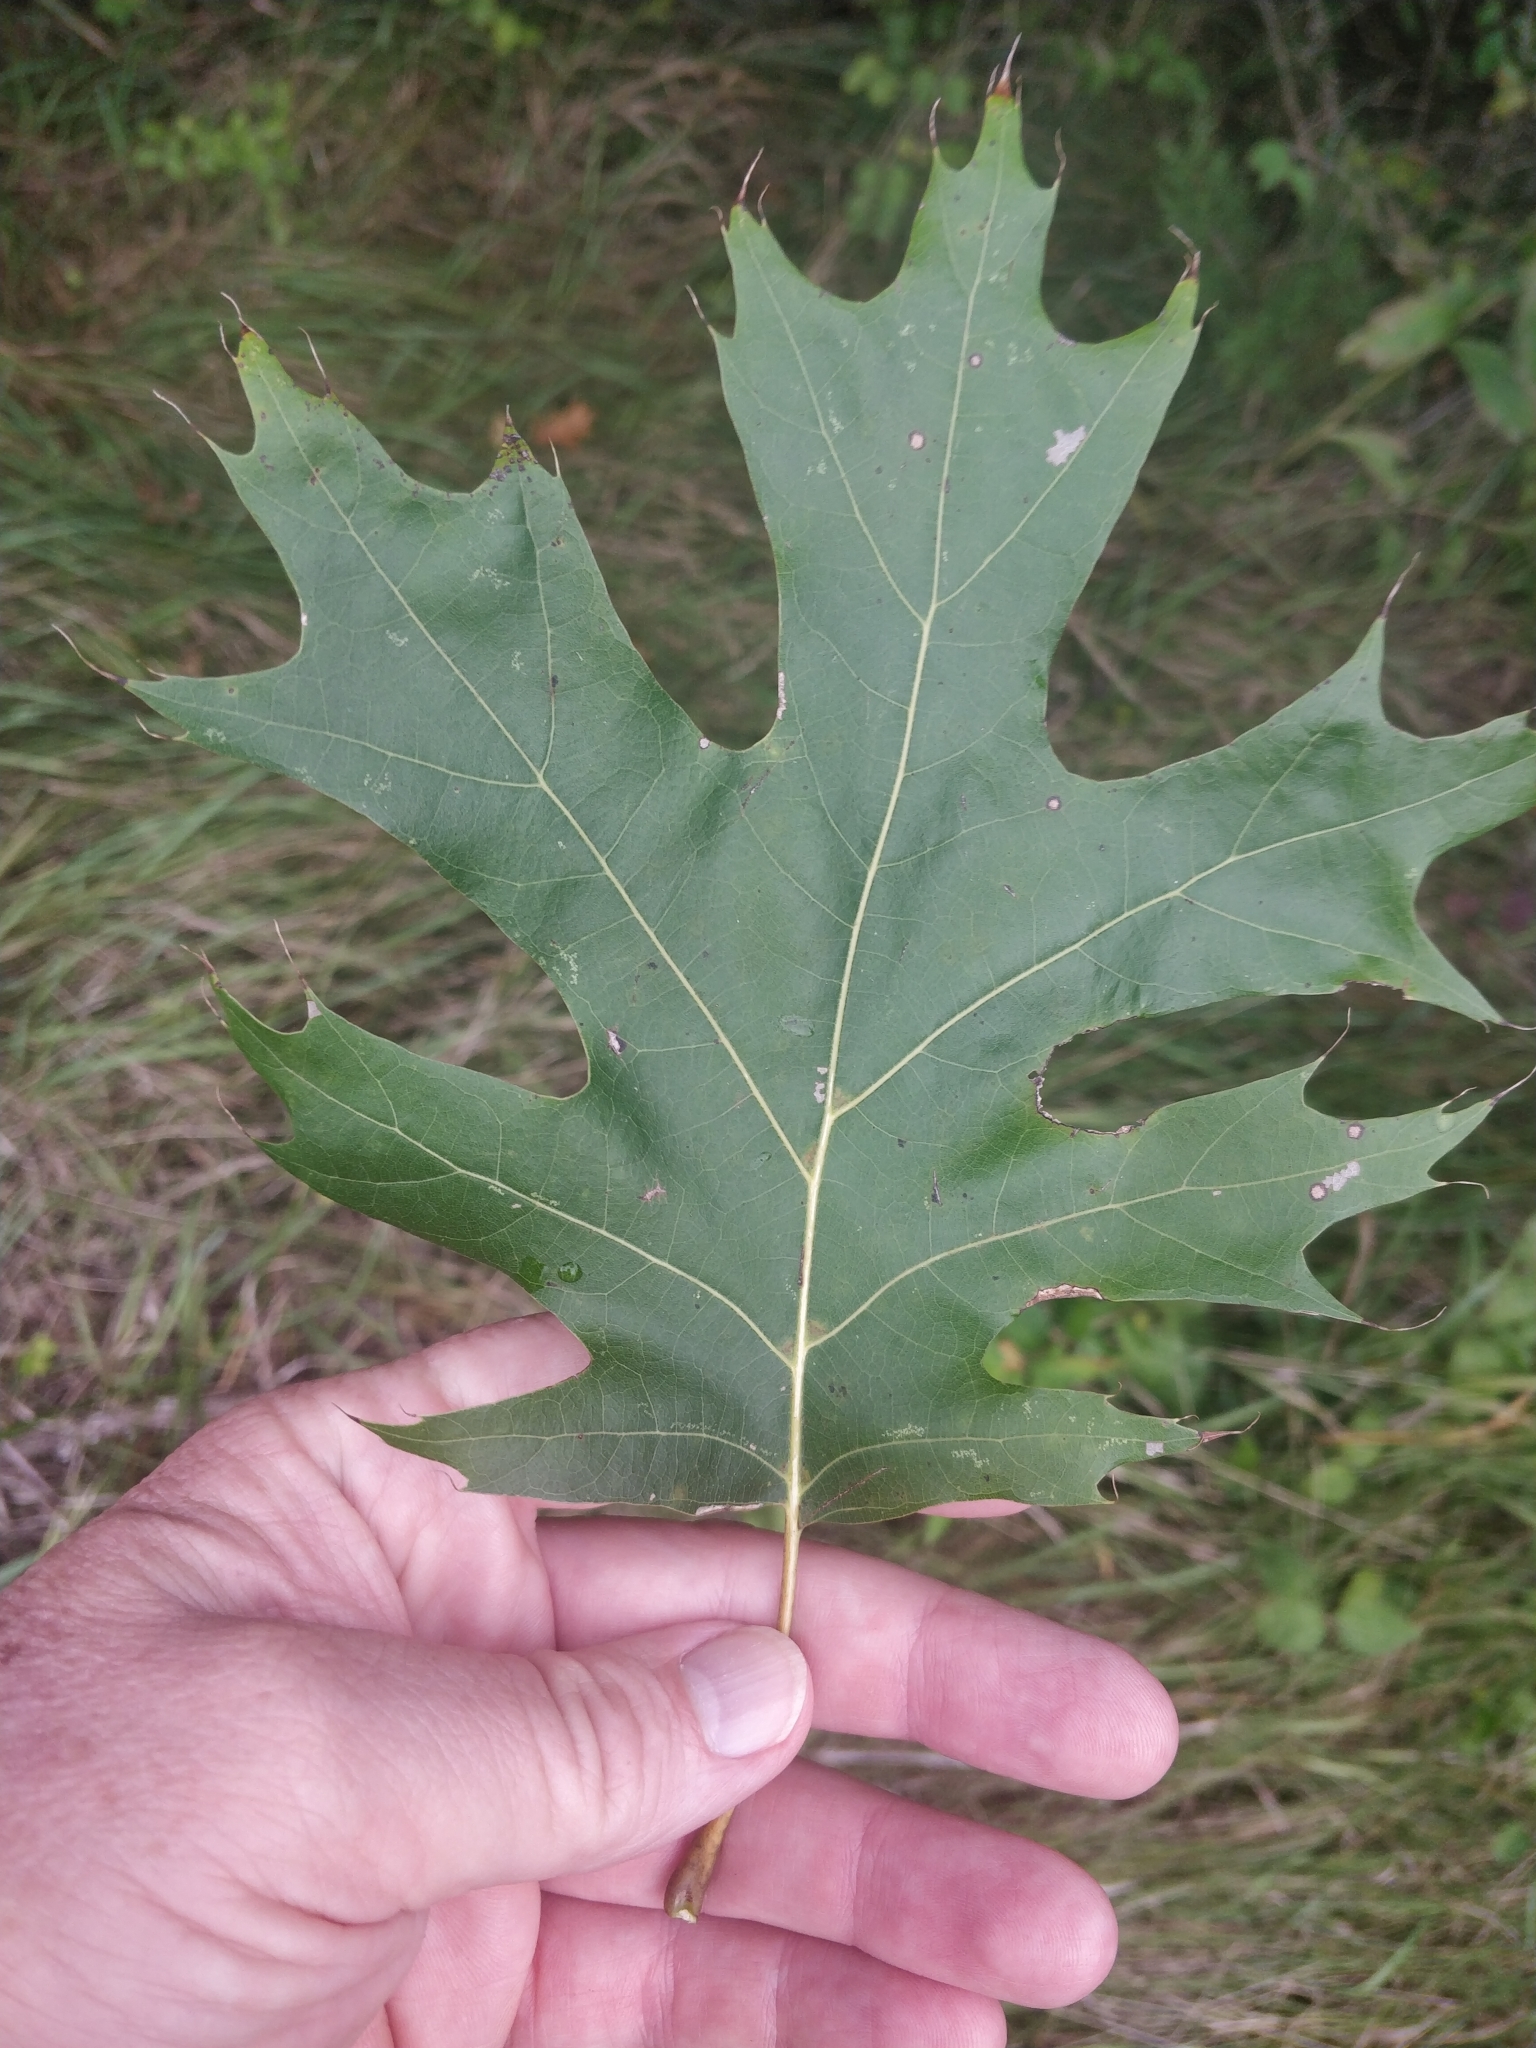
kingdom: Plantae
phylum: Tracheophyta
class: Magnoliopsida
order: Fagales
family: Fagaceae
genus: Quercus
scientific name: Quercus shumardii
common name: Shumard oak
